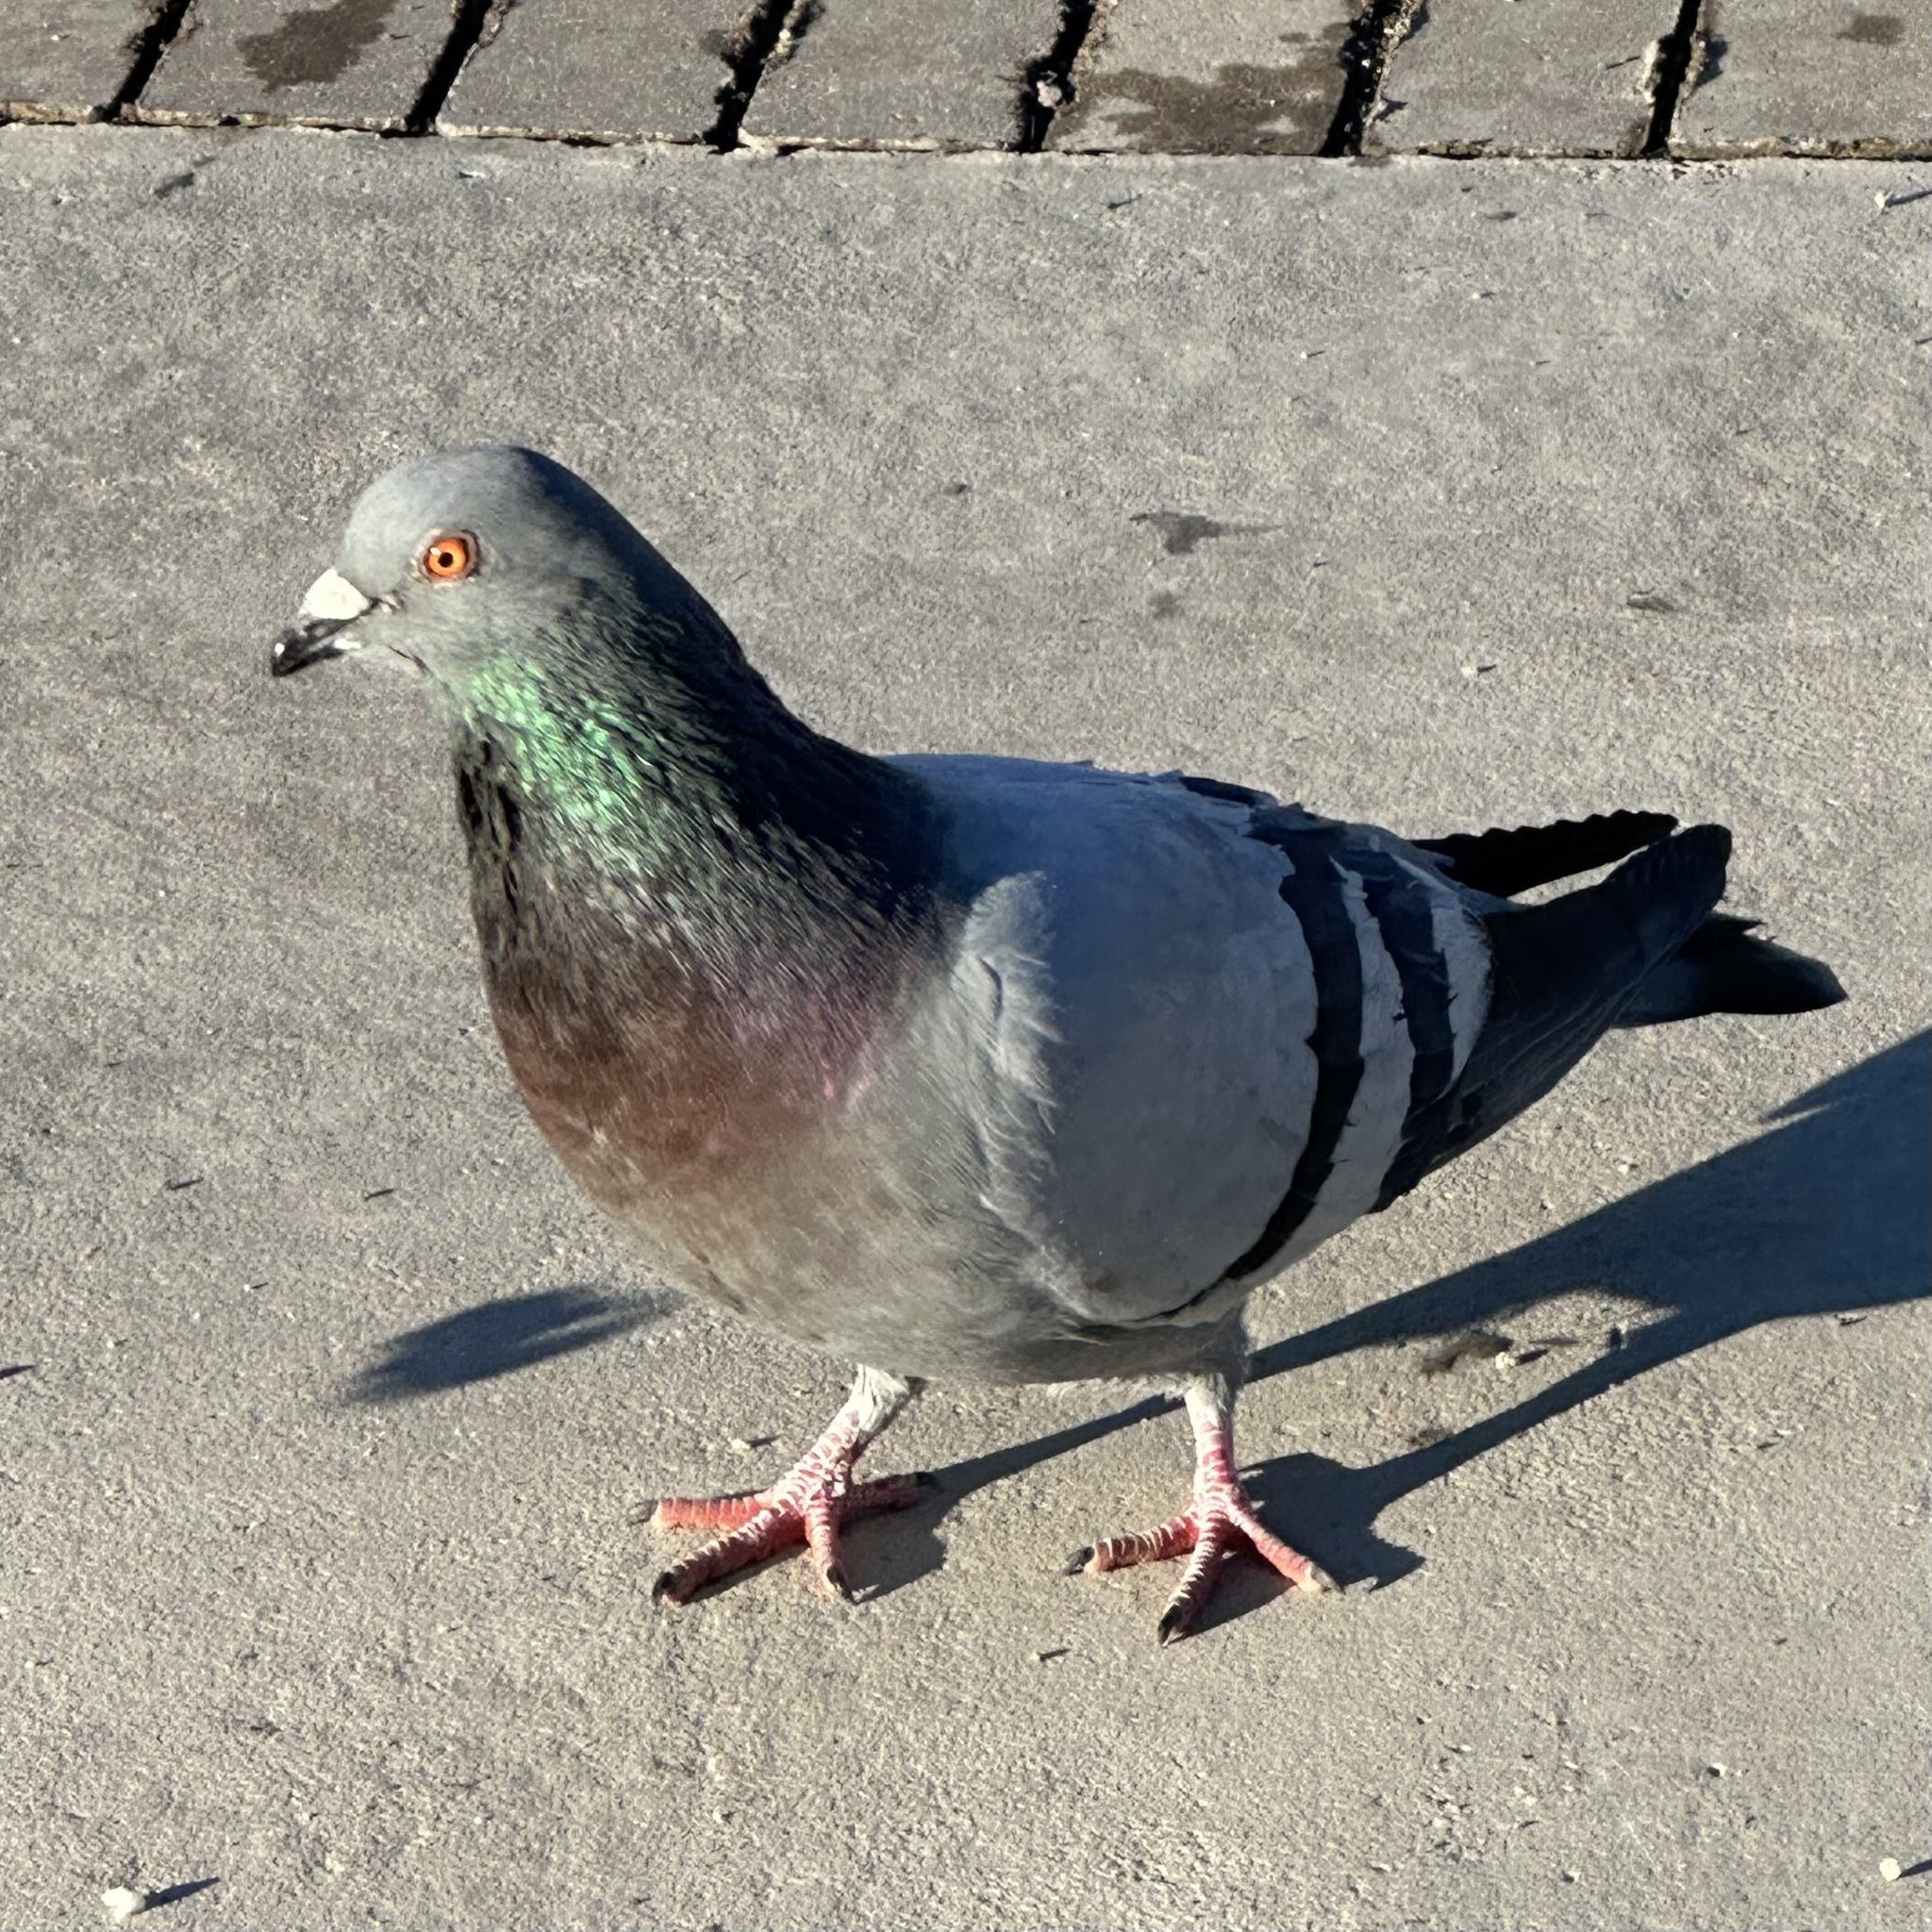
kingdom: Animalia
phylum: Chordata
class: Aves
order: Columbiformes
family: Columbidae
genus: Columba
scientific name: Columba livia
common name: Rock pigeon
